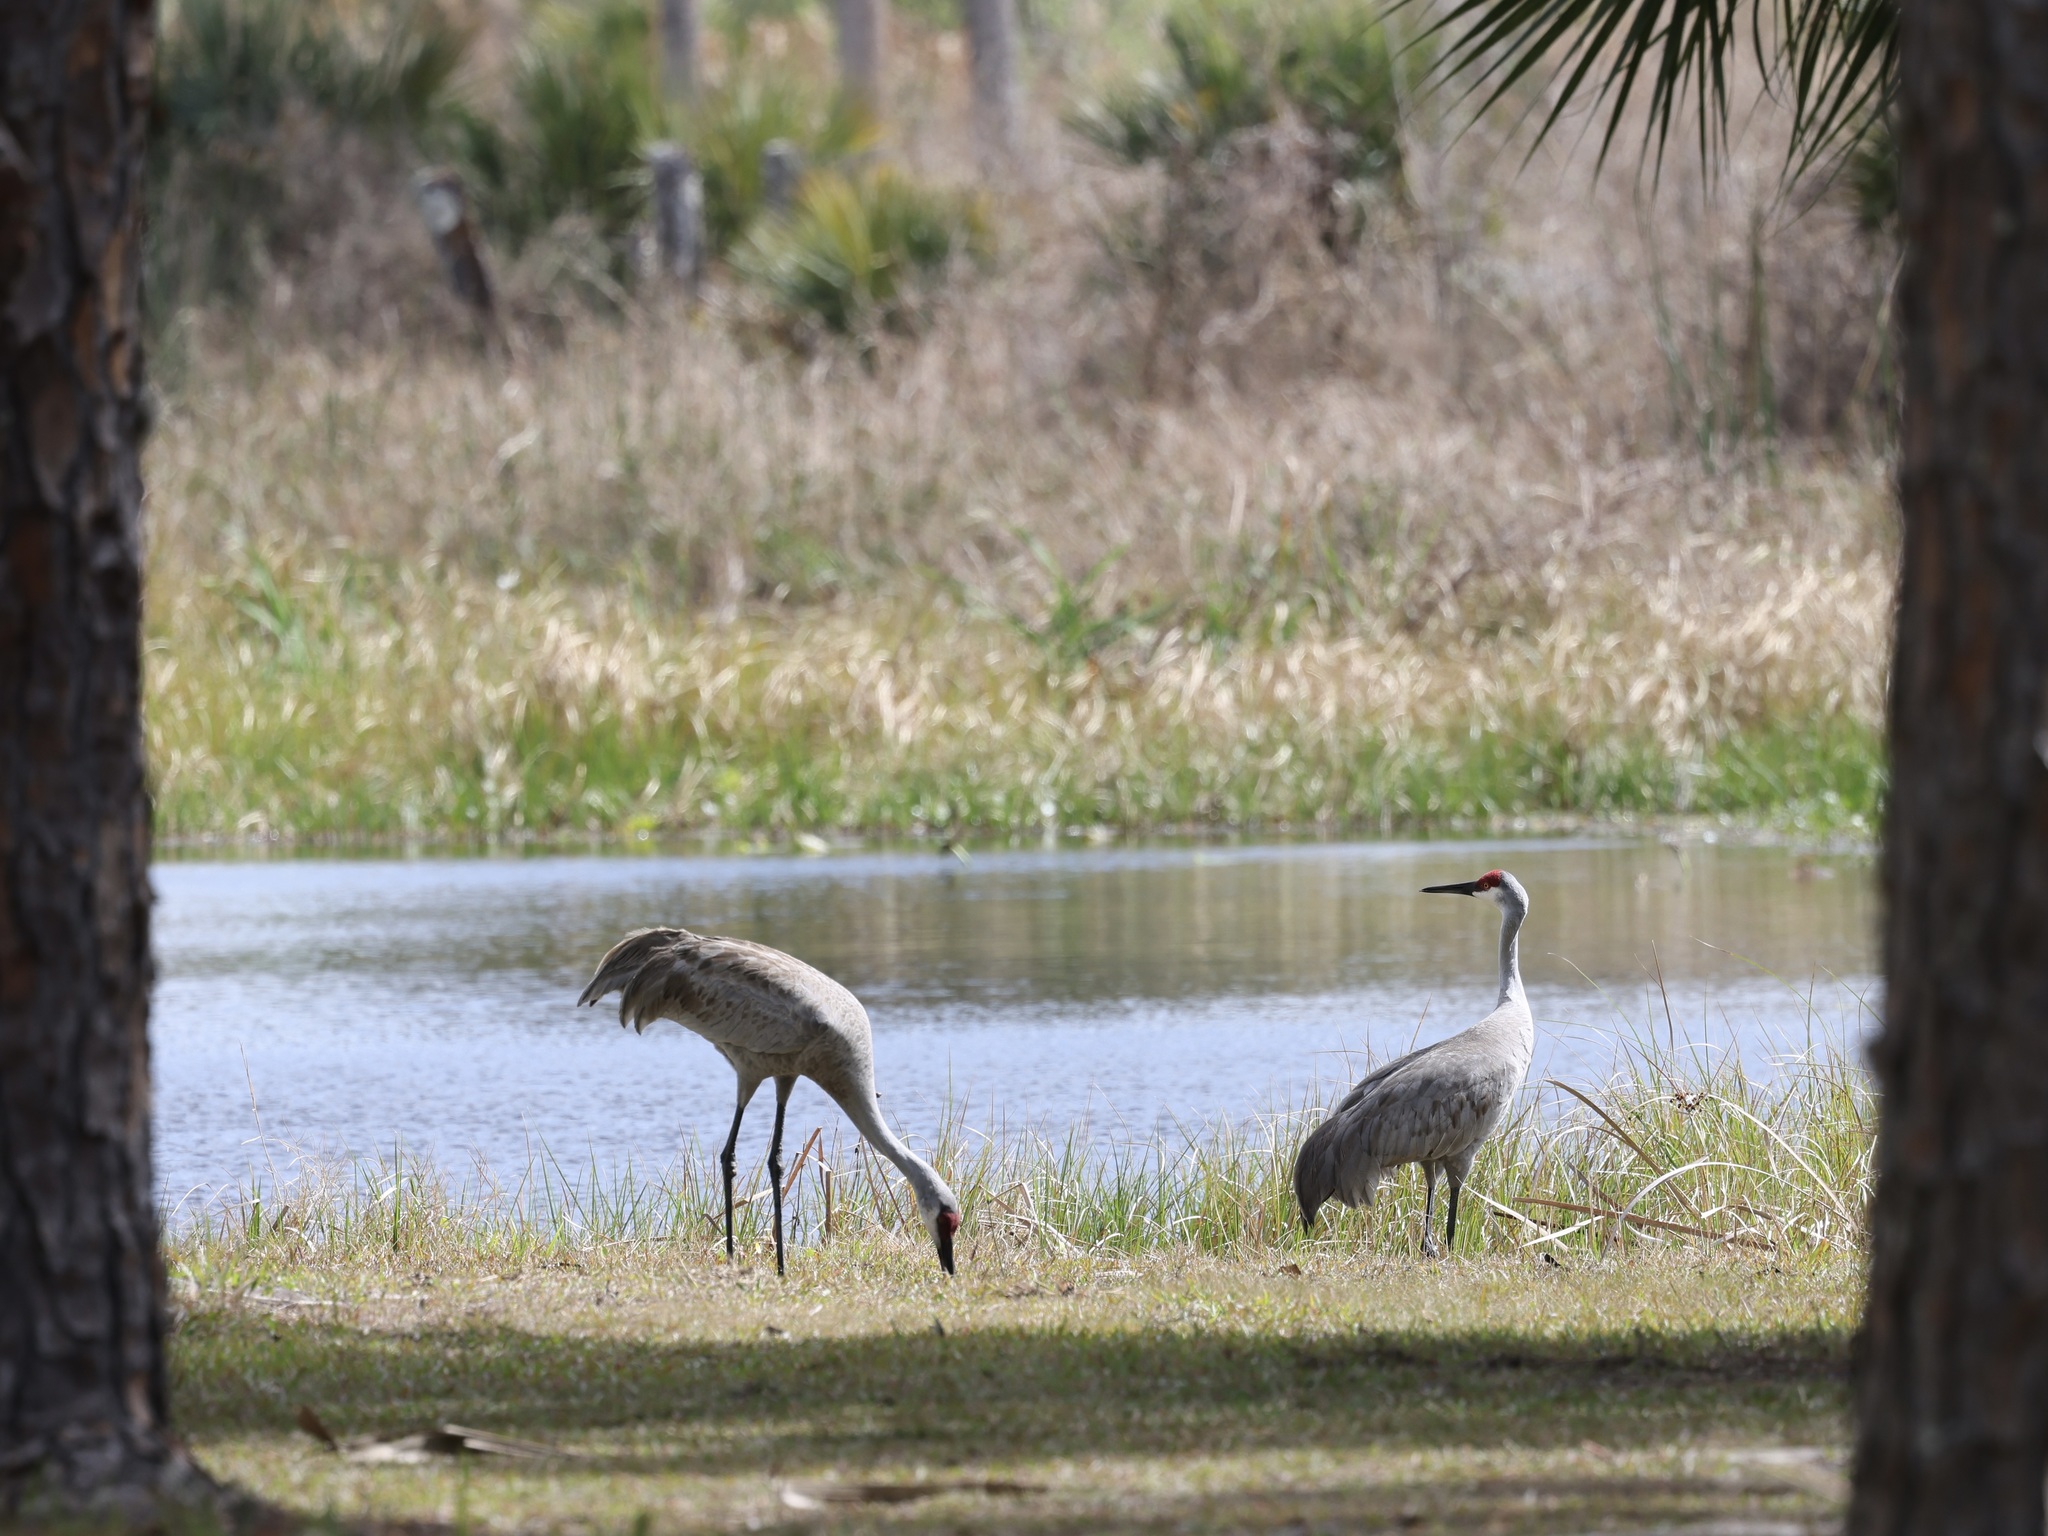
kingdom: Animalia
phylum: Chordata
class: Aves
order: Gruiformes
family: Gruidae
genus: Grus
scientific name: Grus canadensis
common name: Sandhill crane
